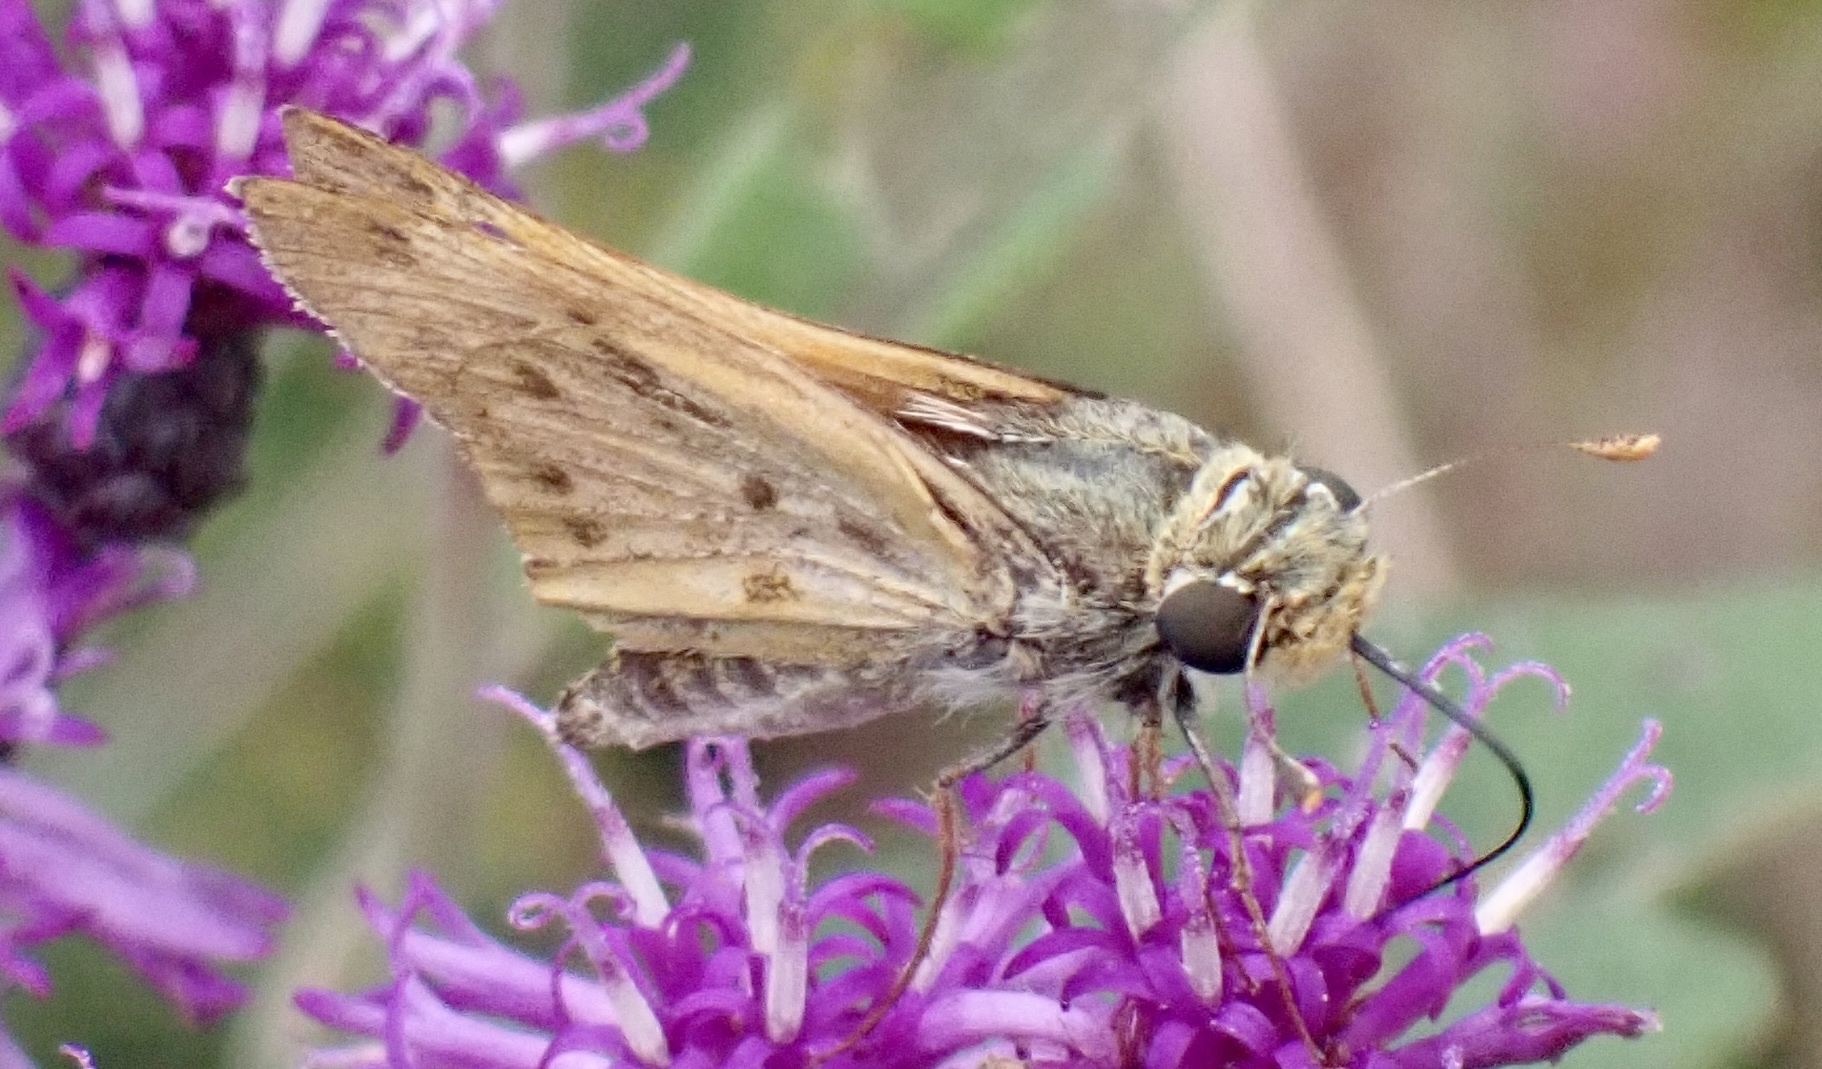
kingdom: Animalia
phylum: Arthropoda
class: Insecta
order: Lepidoptera
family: Hesperiidae
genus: Hylephila
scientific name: Hylephila phyleus
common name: Fiery skipper
